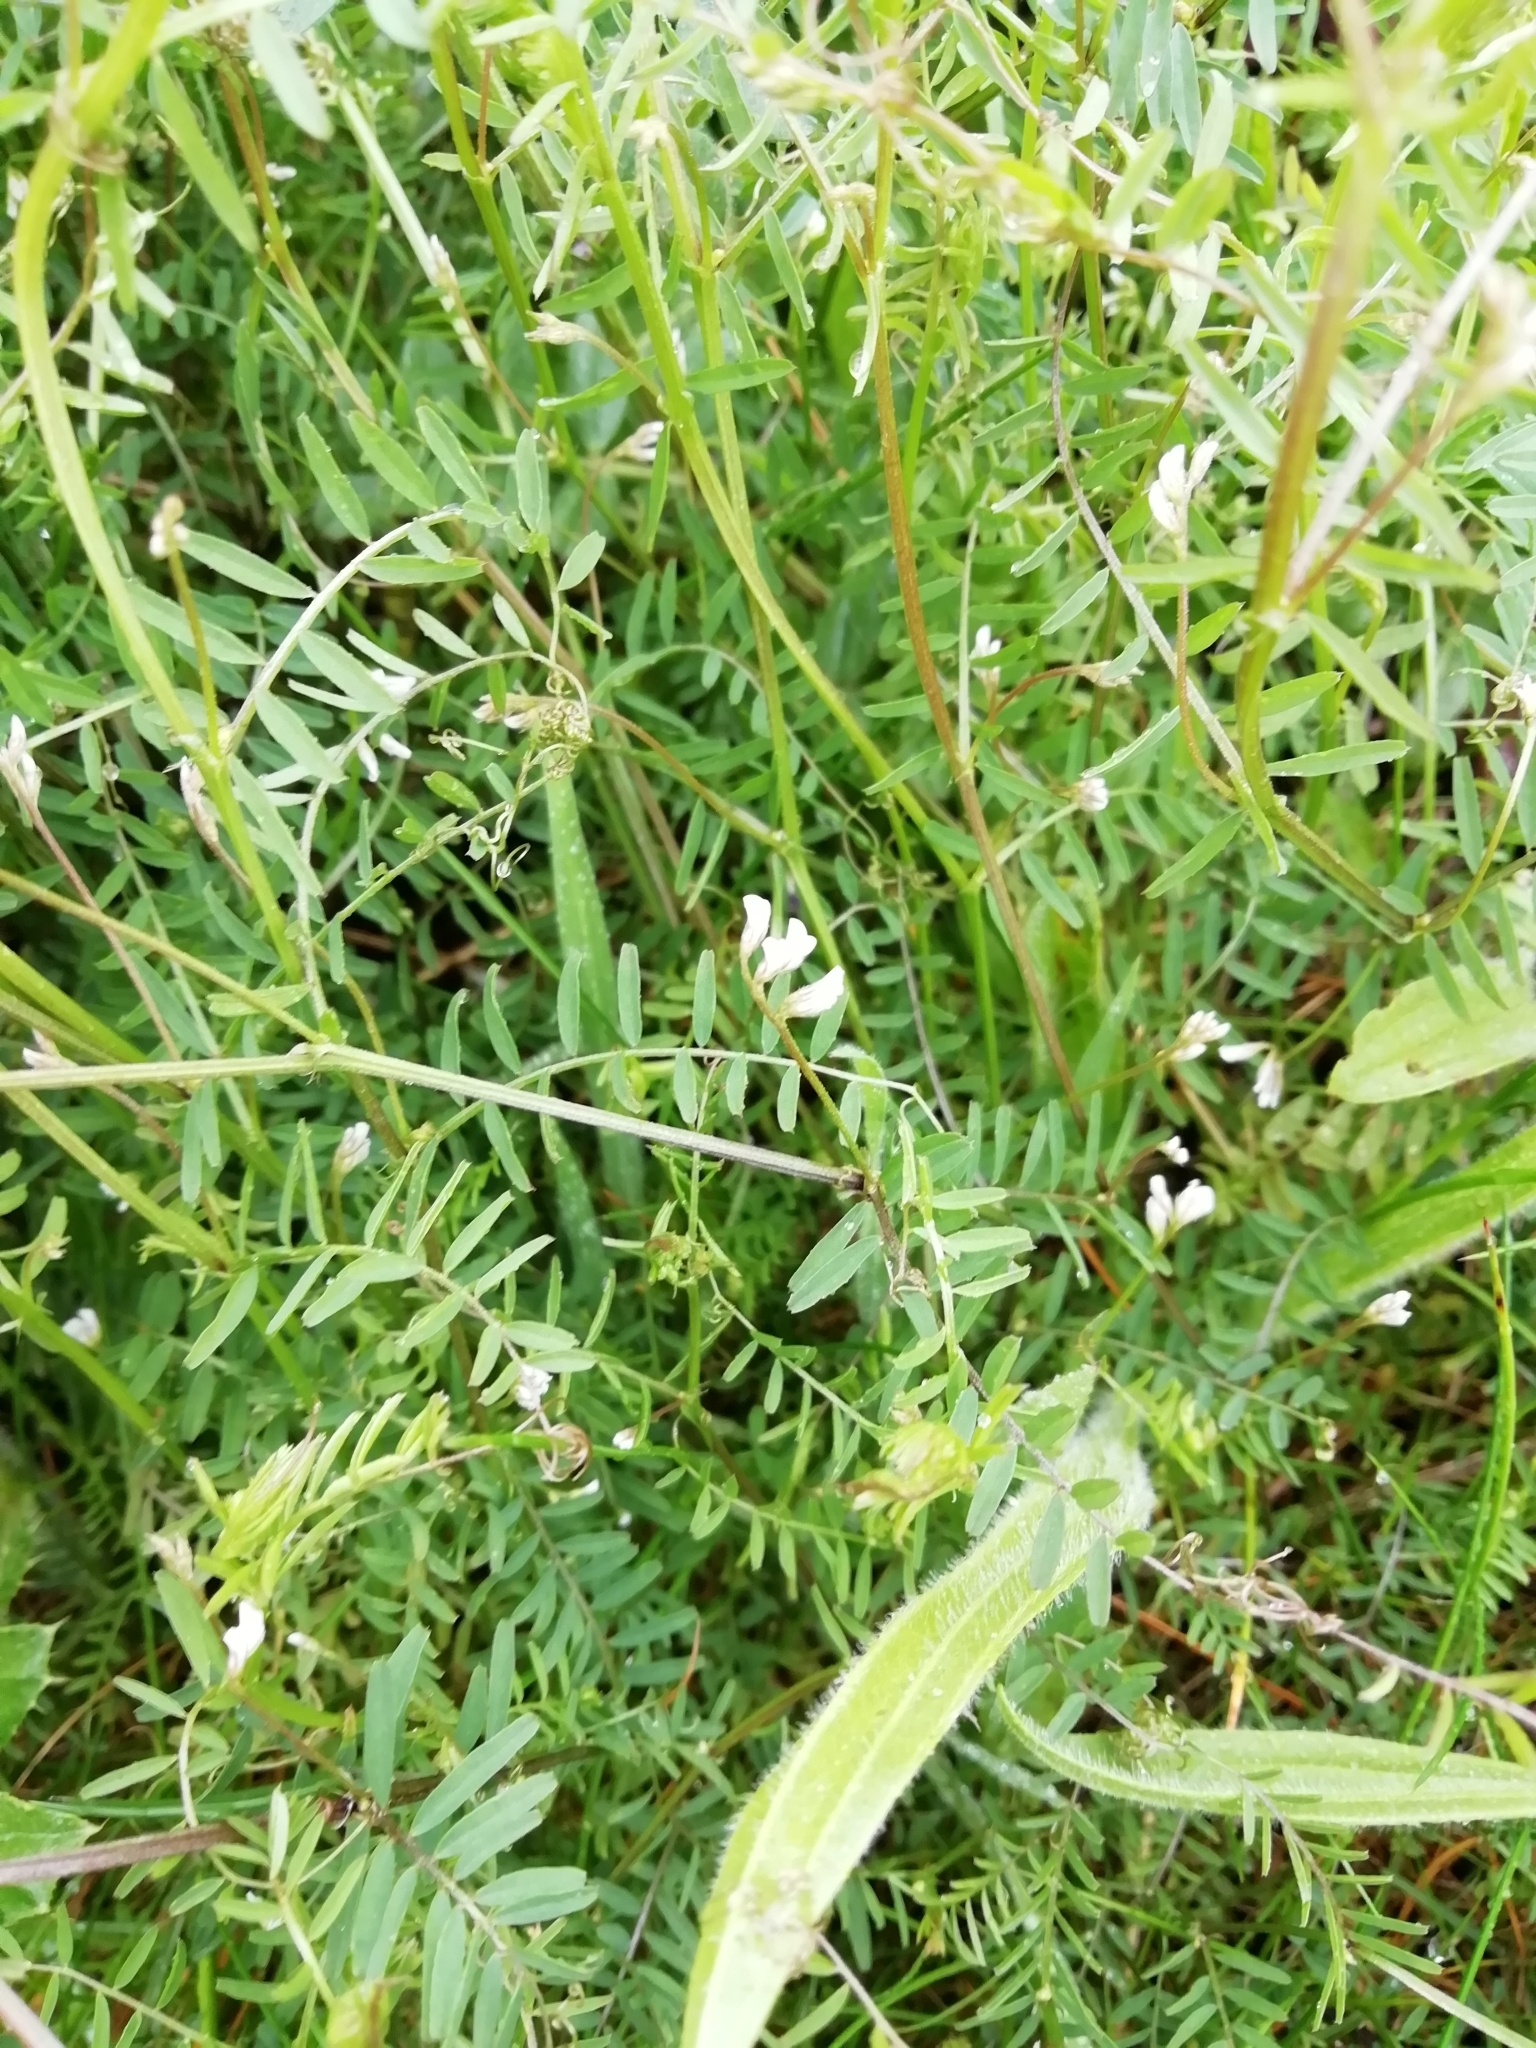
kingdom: Plantae
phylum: Tracheophyta
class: Magnoliopsida
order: Fabales
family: Fabaceae
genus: Vicia
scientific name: Vicia hirsuta
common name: Tiny vetch
